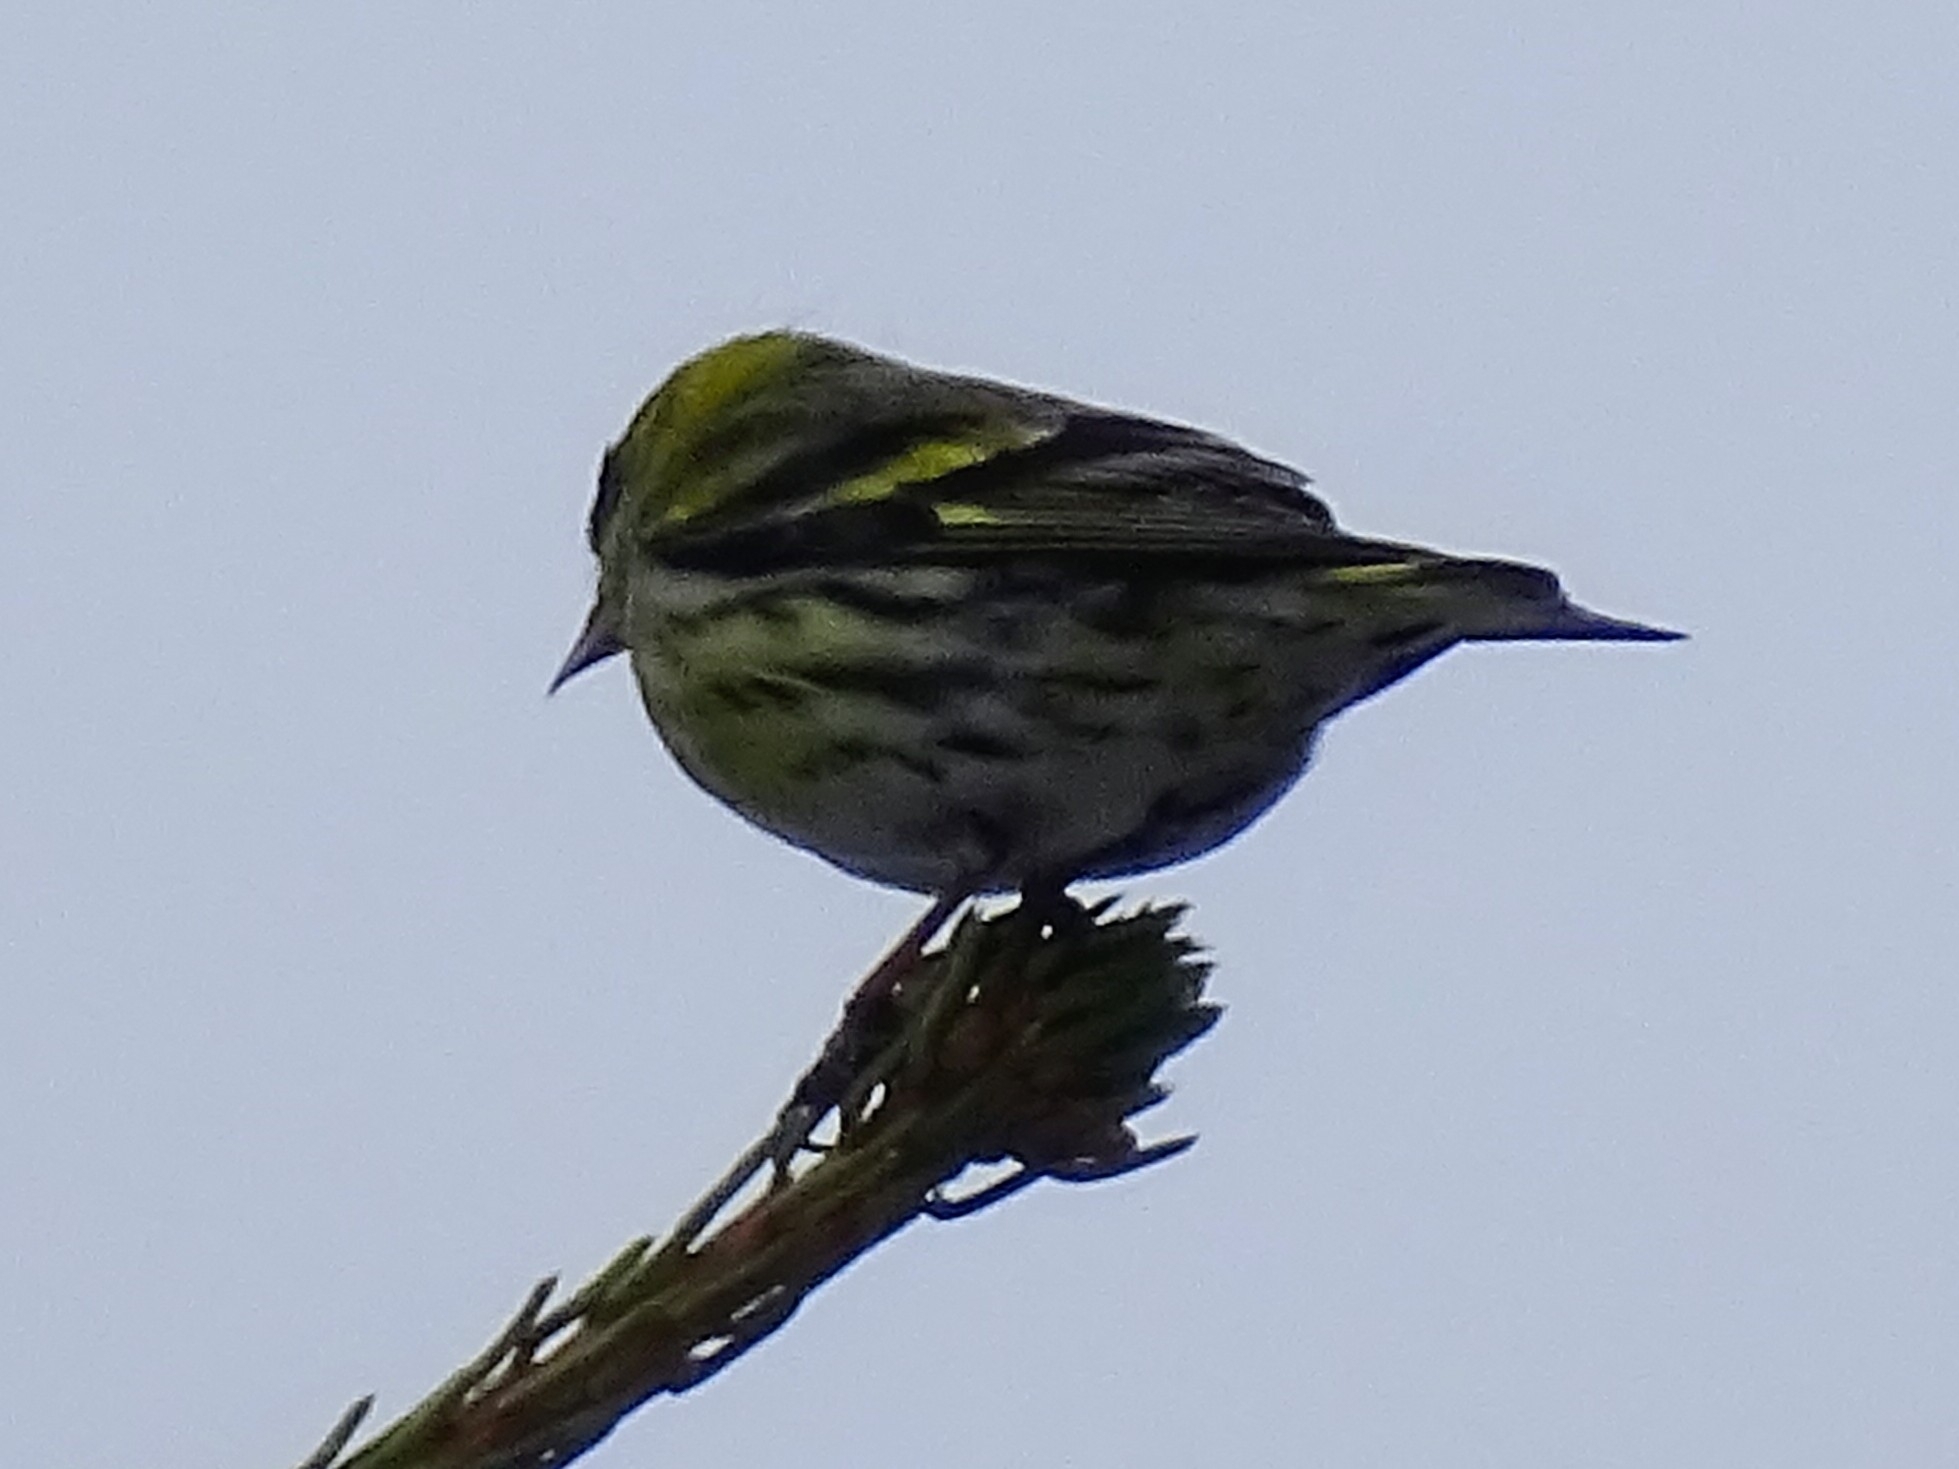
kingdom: Animalia
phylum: Chordata
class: Aves
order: Passeriformes
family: Fringillidae
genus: Spinus
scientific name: Spinus spinus
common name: Eurasian siskin
